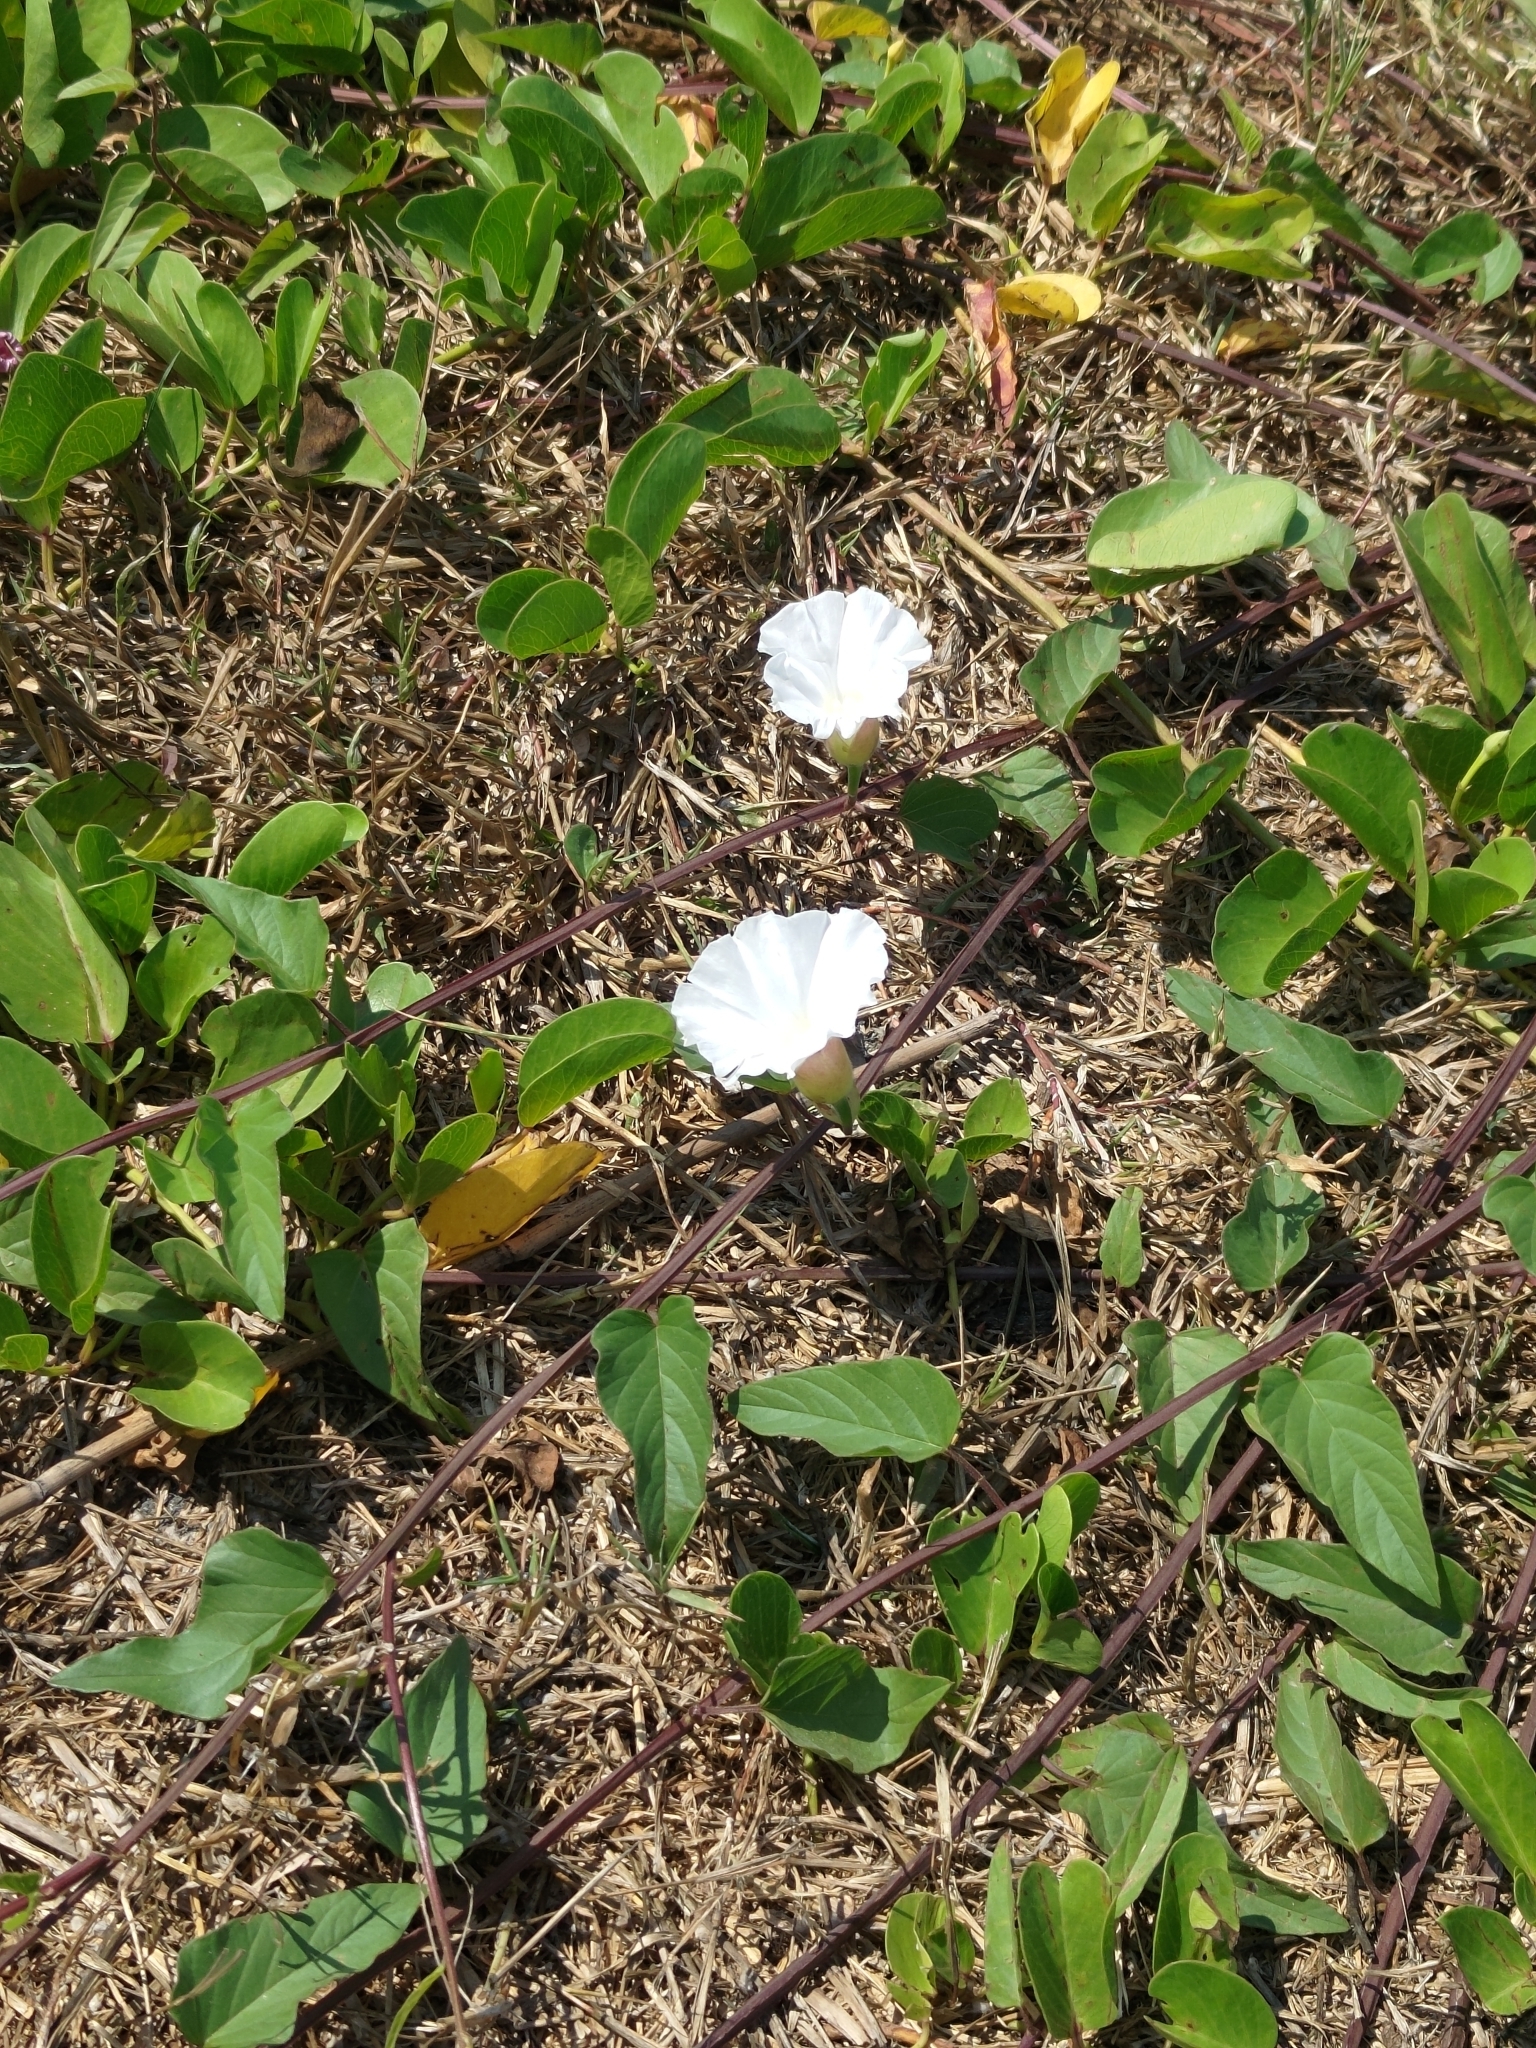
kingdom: Plantae
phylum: Tracheophyta
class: Magnoliopsida
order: Solanales
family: Convolvulaceae
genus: Operculina
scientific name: Operculina turpethum
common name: Transparent wood-rose
